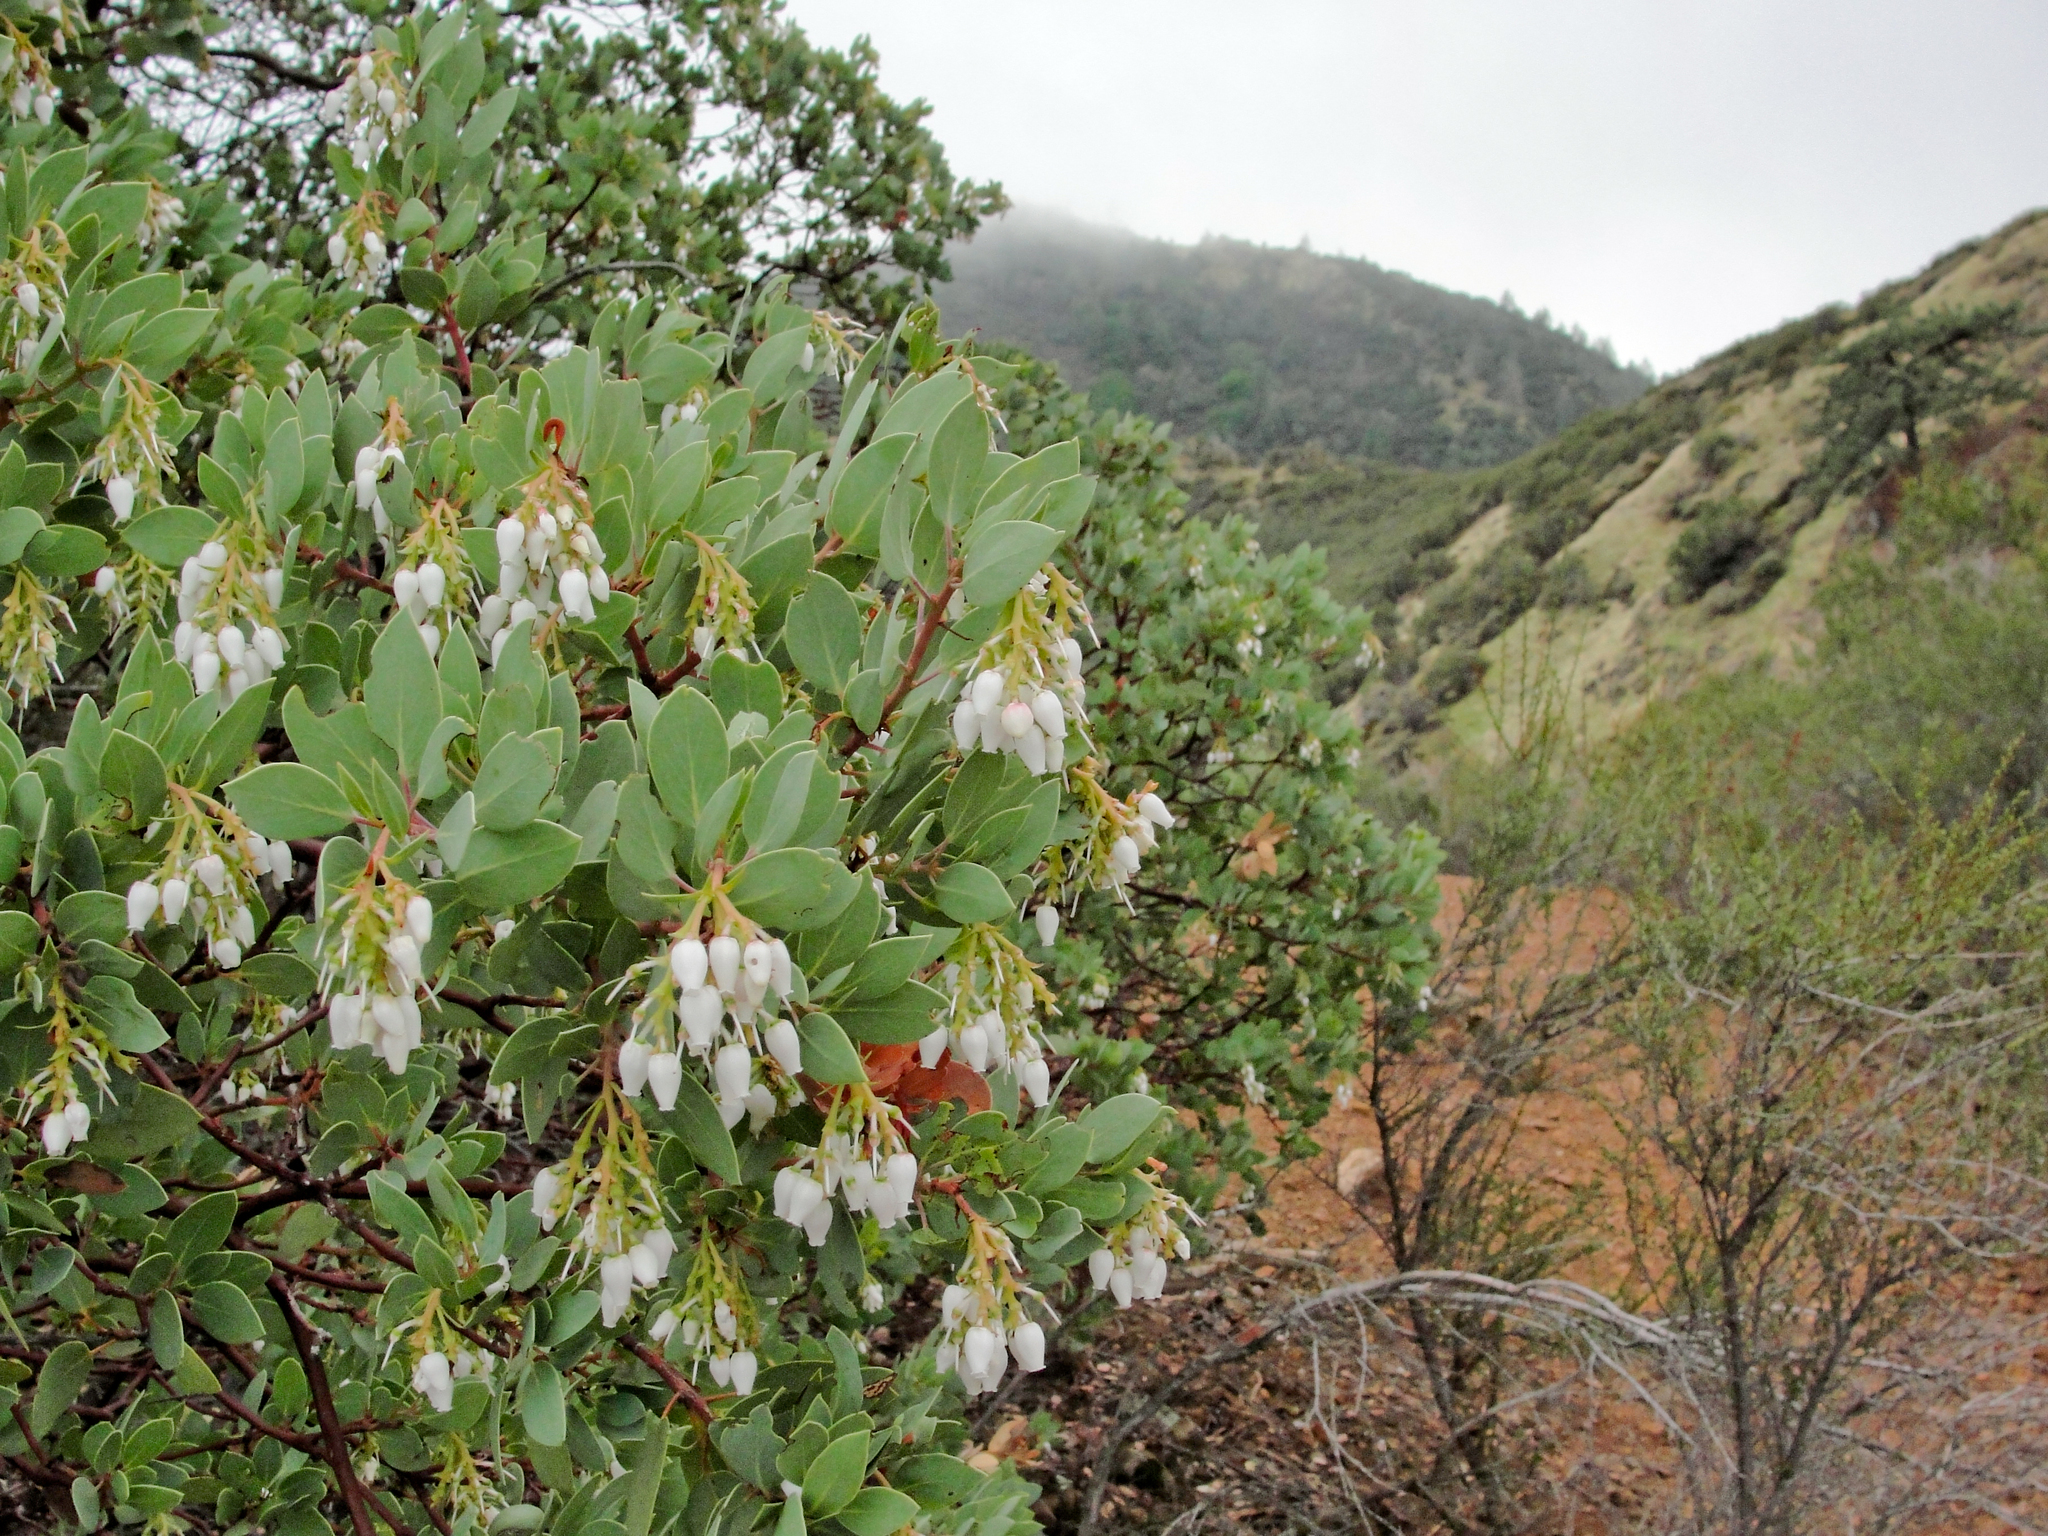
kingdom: Plantae
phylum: Tracheophyta
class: Magnoliopsida
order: Ericales
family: Ericaceae
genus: Arctostaphylos
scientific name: Arctostaphylos glauca
